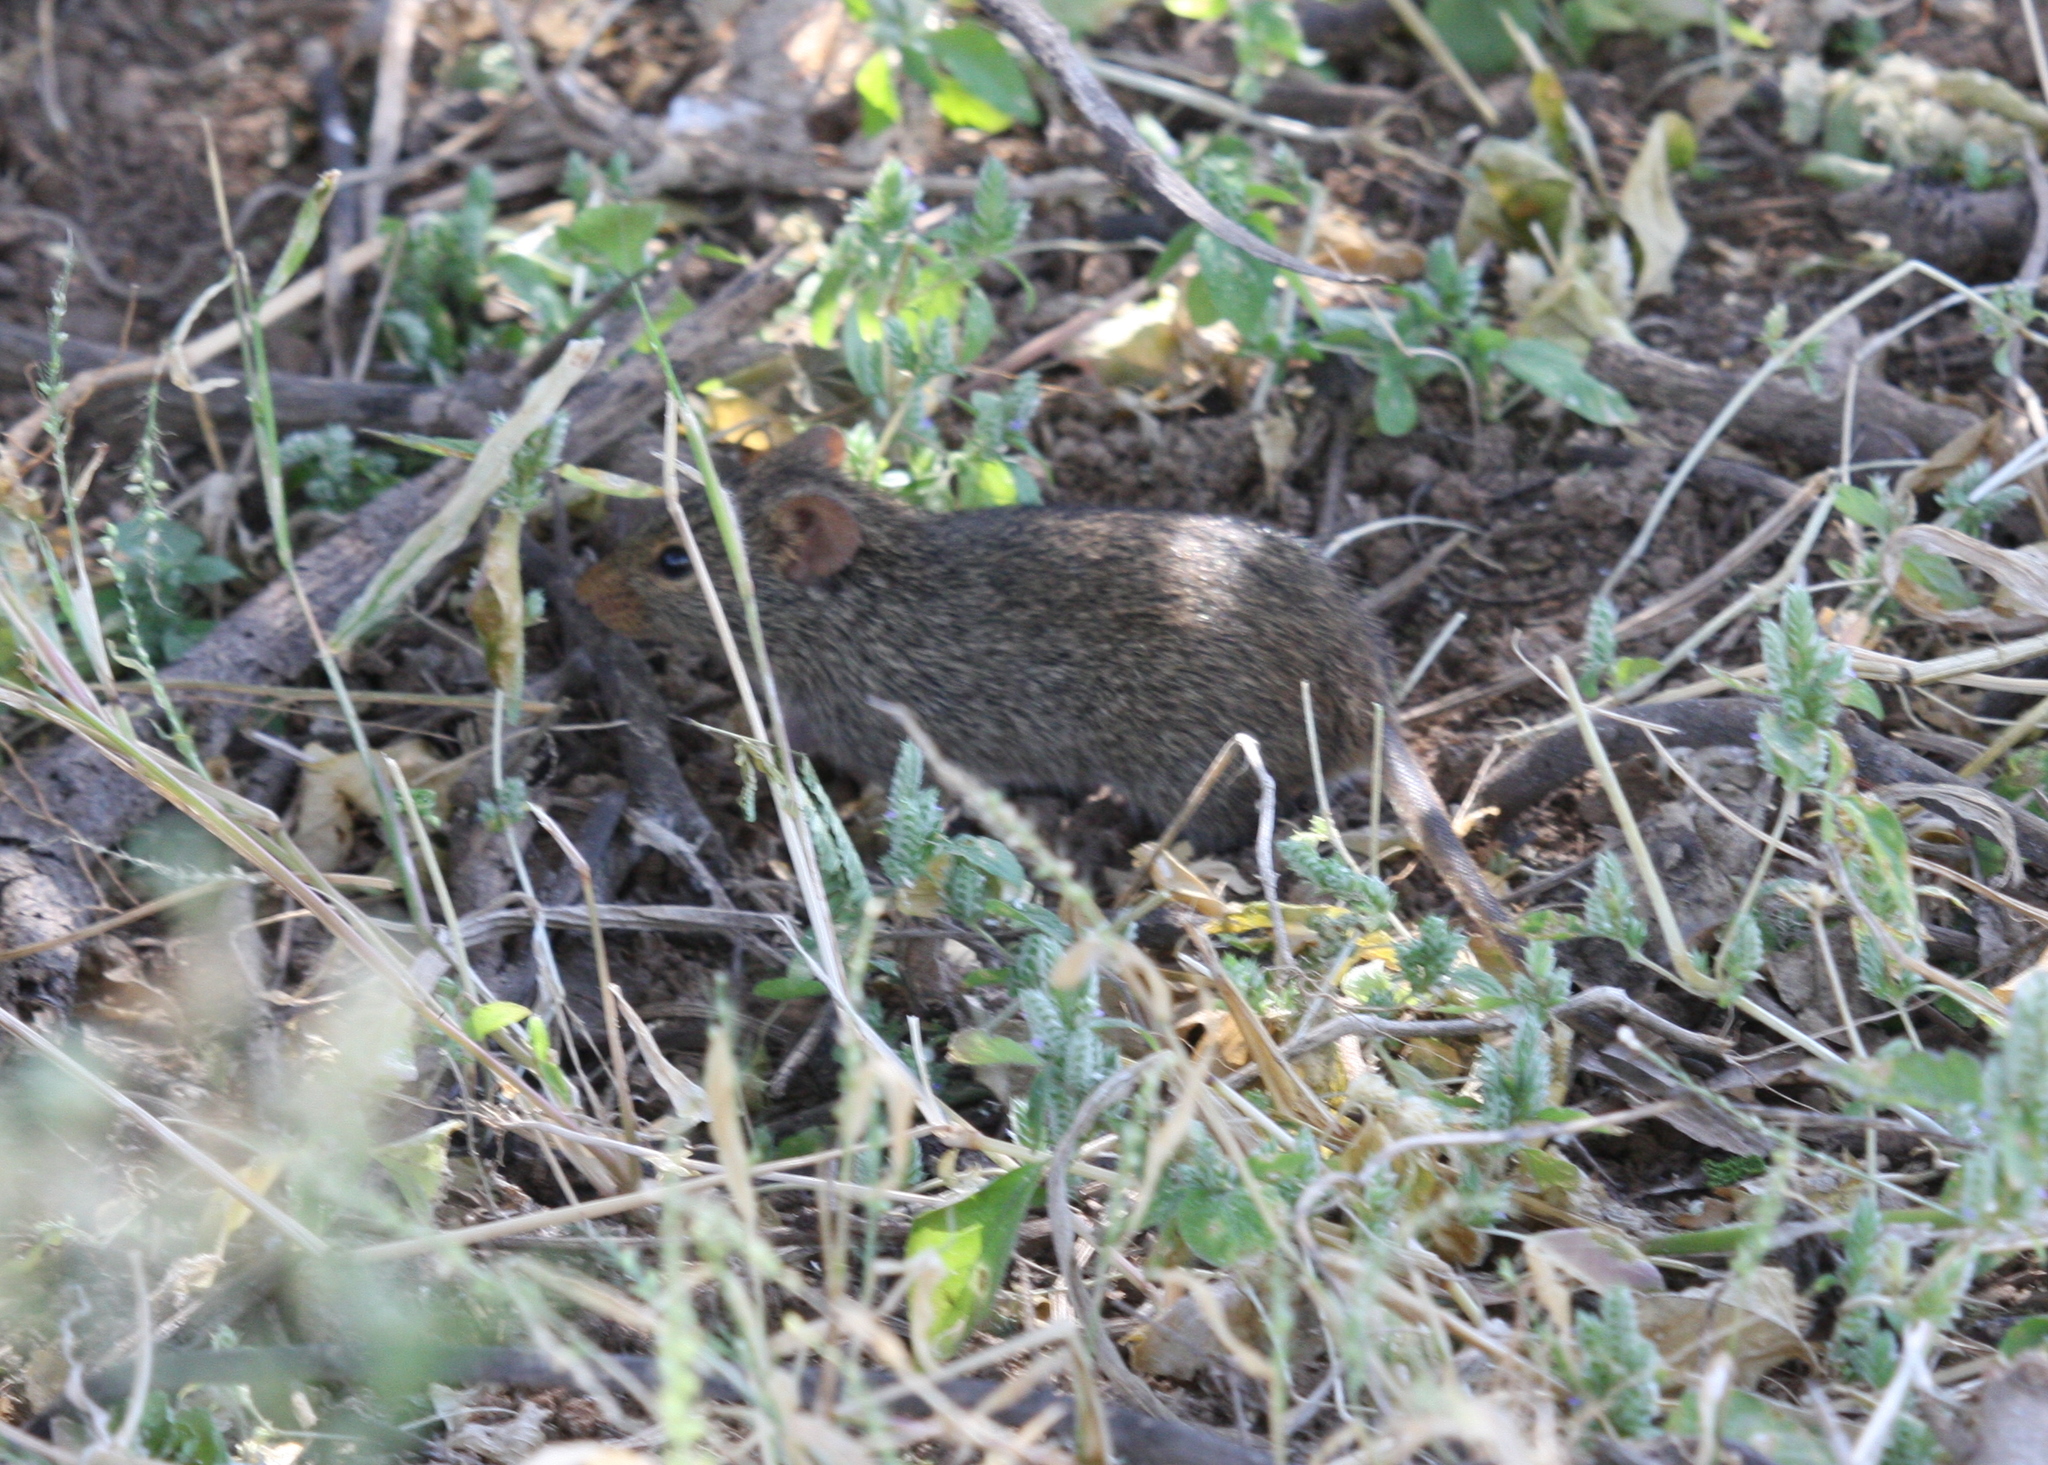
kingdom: Animalia
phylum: Chordata
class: Mammalia
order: Rodentia
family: Muridae
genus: Arvicanthis
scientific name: Arvicanthis niloticus
